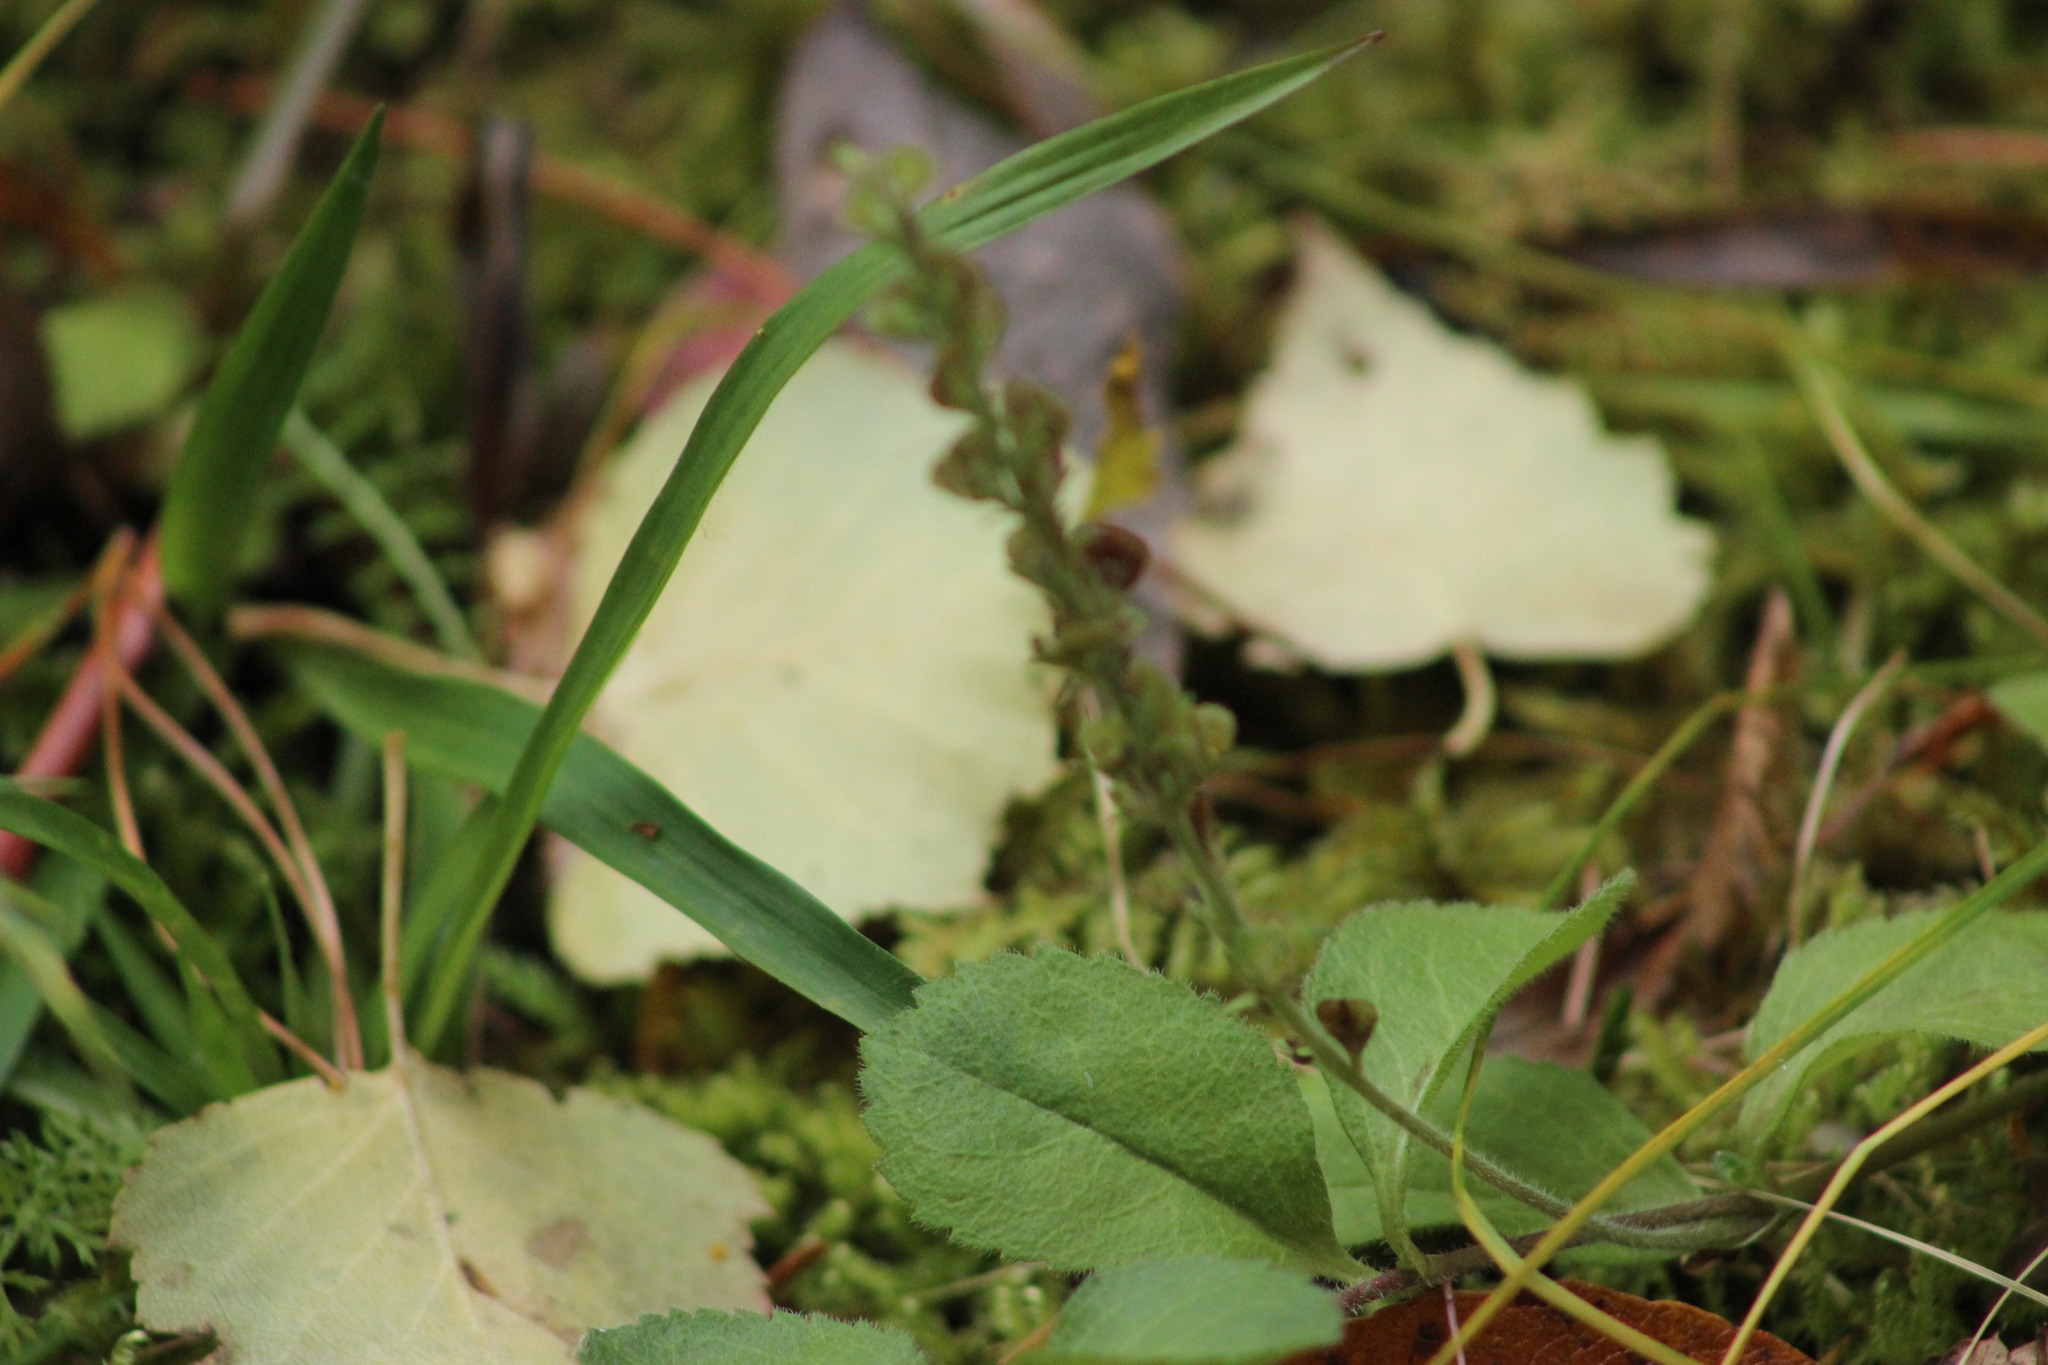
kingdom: Plantae
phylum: Tracheophyta
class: Magnoliopsida
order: Lamiales
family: Plantaginaceae
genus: Veronica
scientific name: Veronica officinalis
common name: Common speedwell
